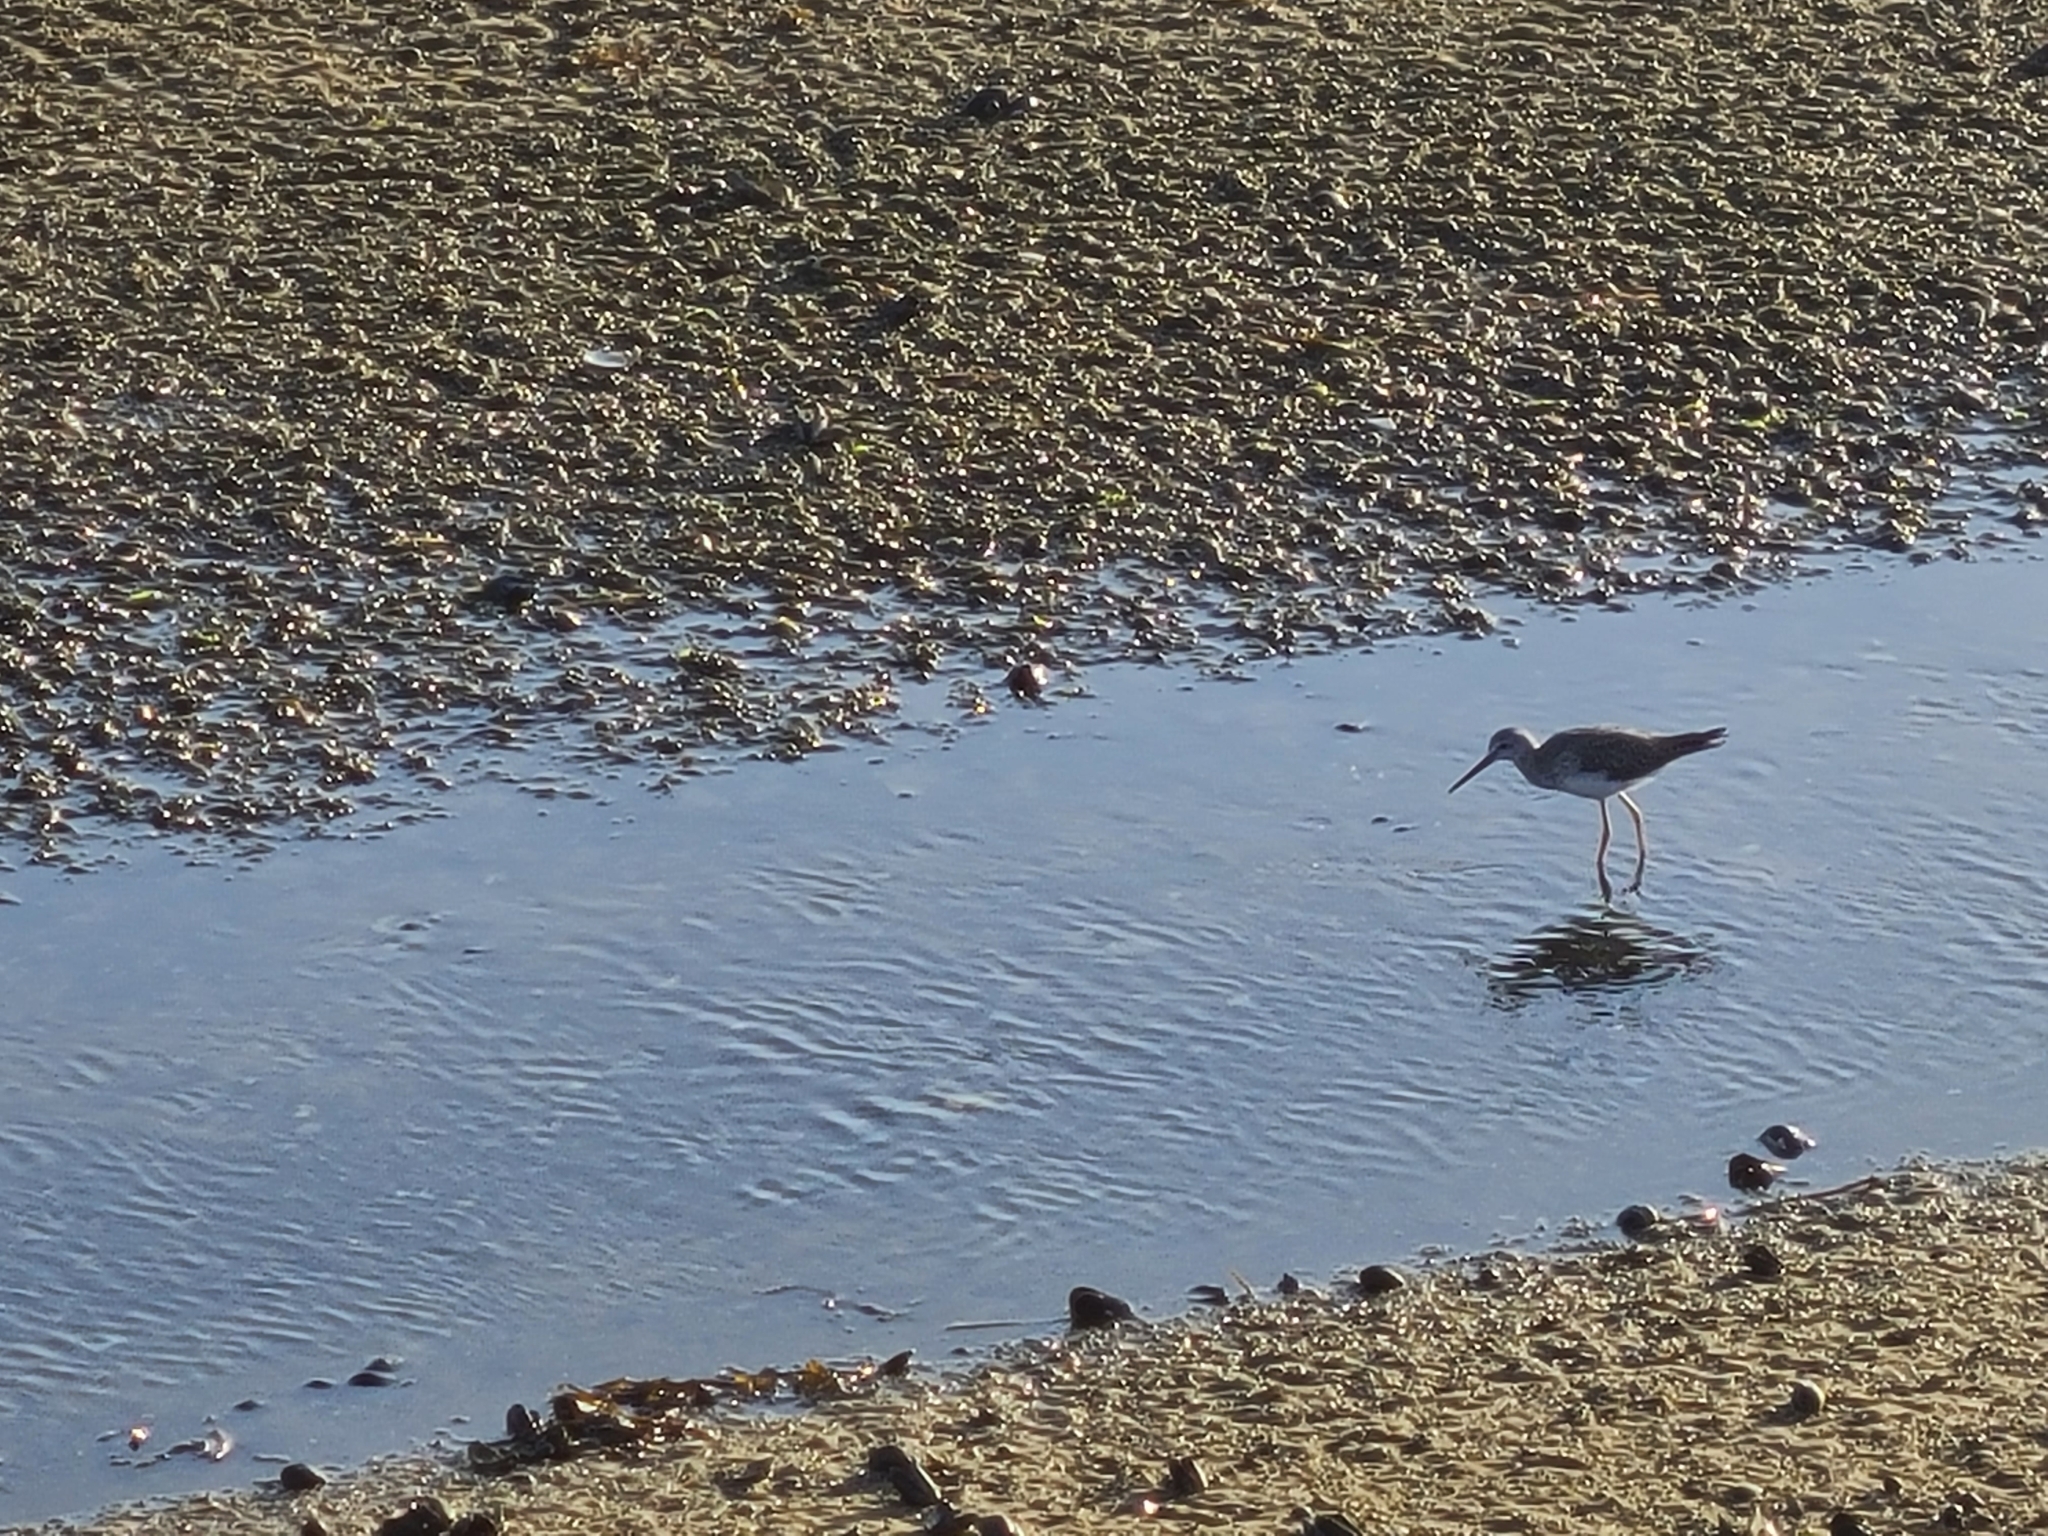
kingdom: Animalia
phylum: Chordata
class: Aves
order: Charadriiformes
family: Scolopacidae
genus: Tringa
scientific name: Tringa melanoleuca
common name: Greater yellowlegs
